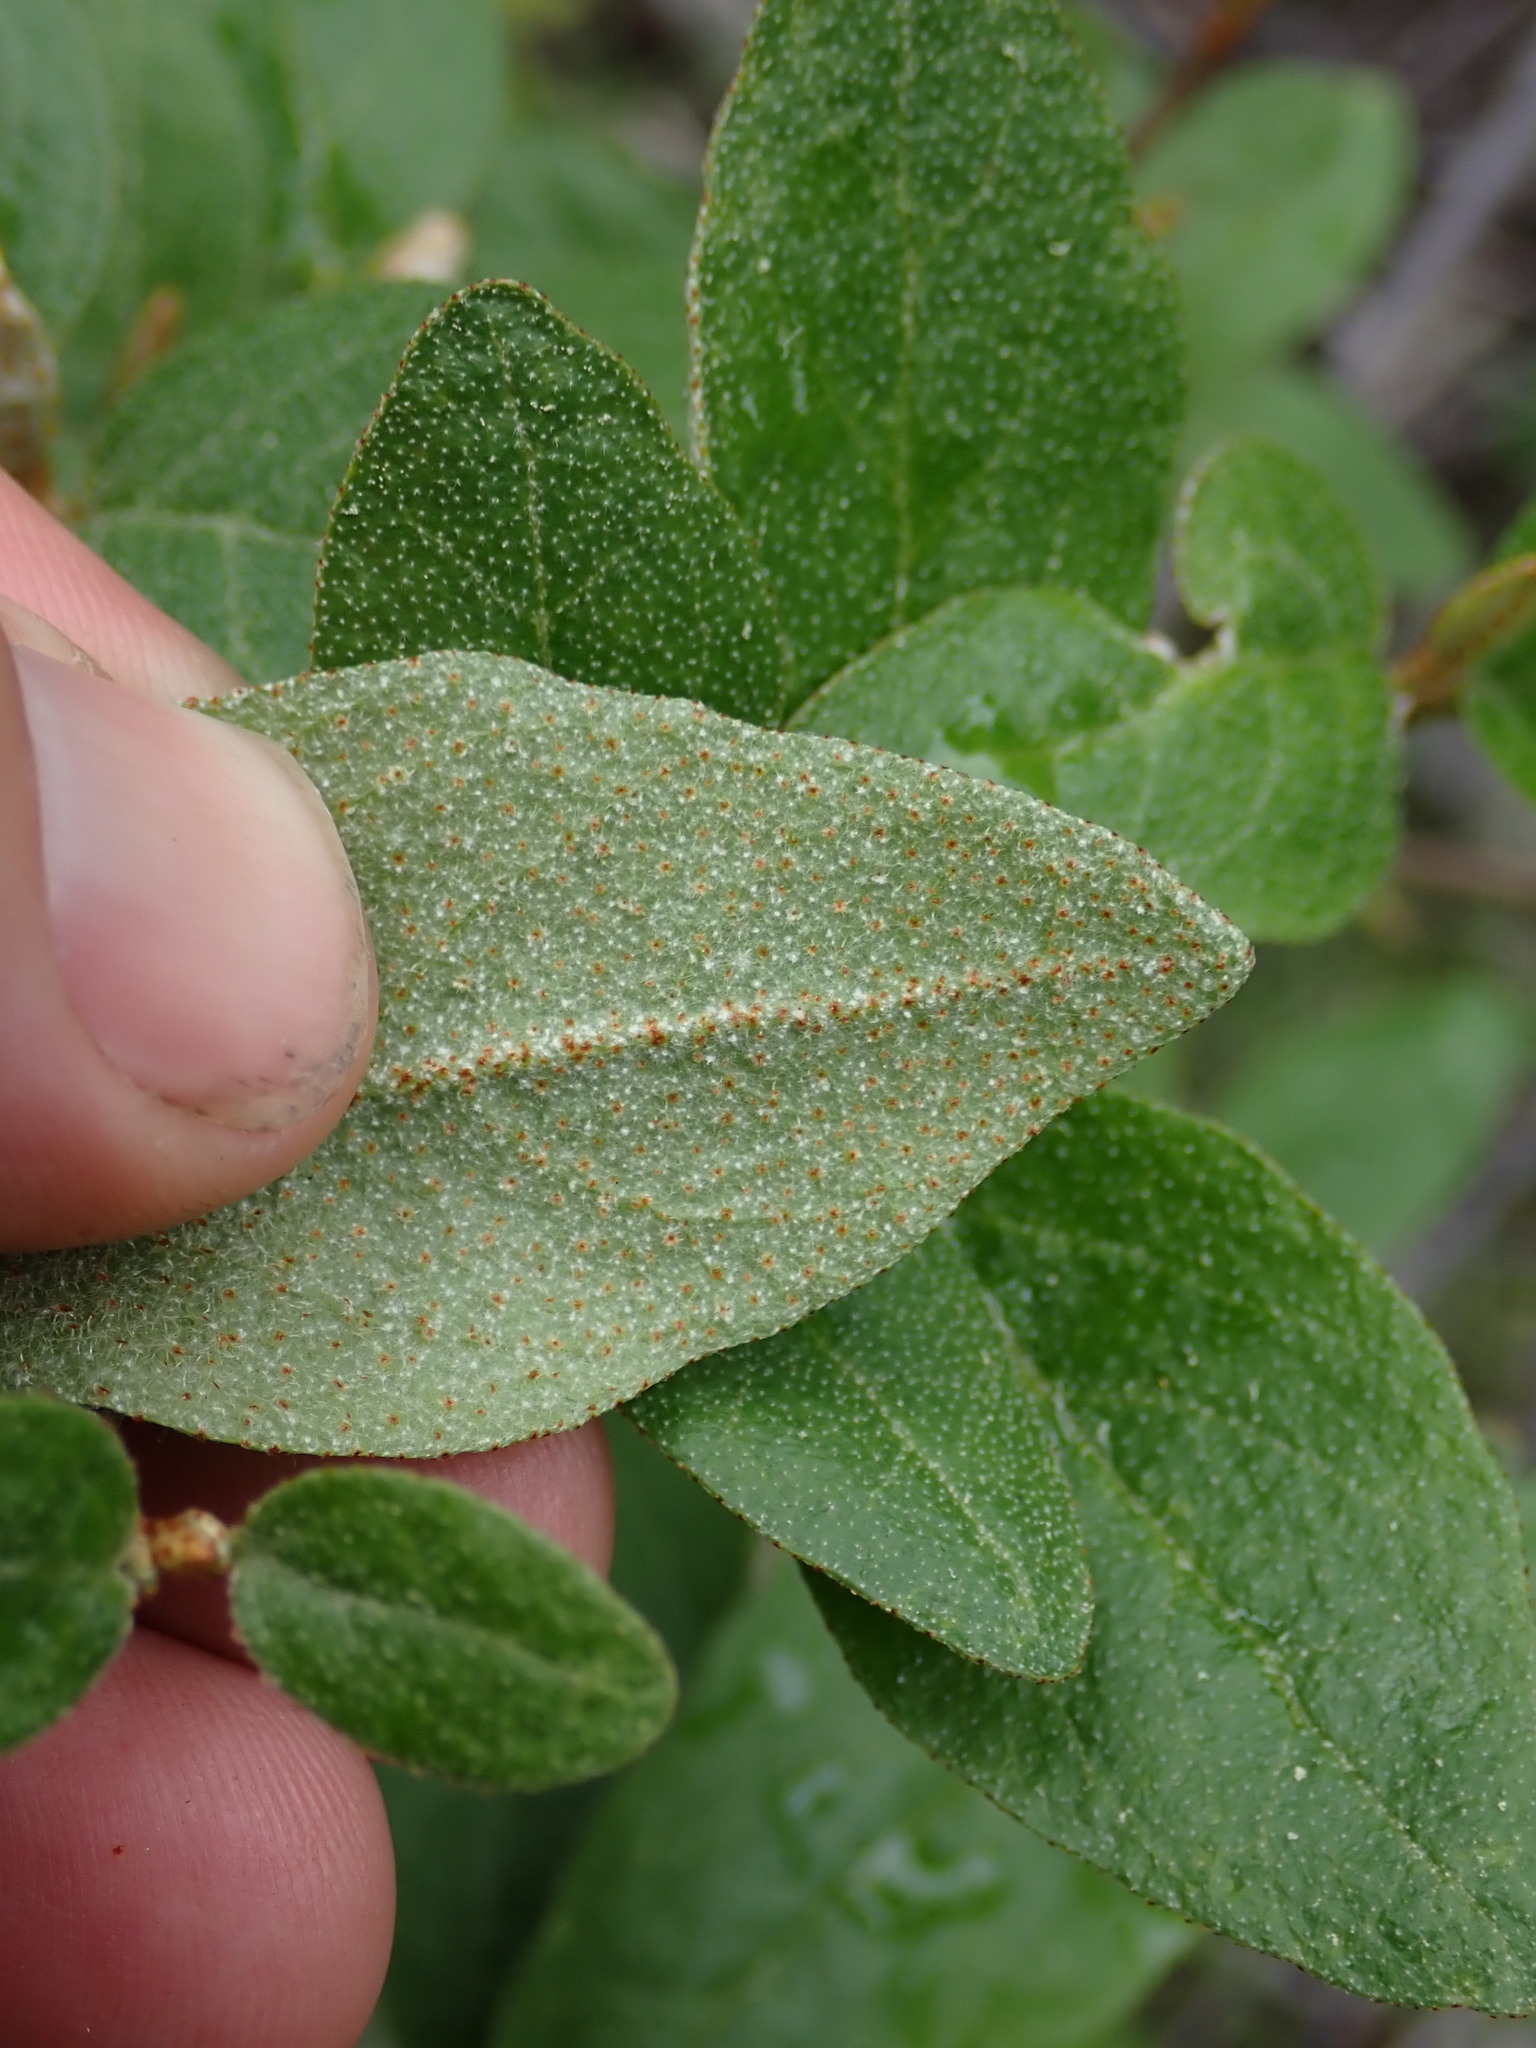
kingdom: Plantae
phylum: Tracheophyta
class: Magnoliopsida
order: Rosales
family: Elaeagnaceae
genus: Shepherdia
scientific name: Shepherdia canadensis
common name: Soapberry
